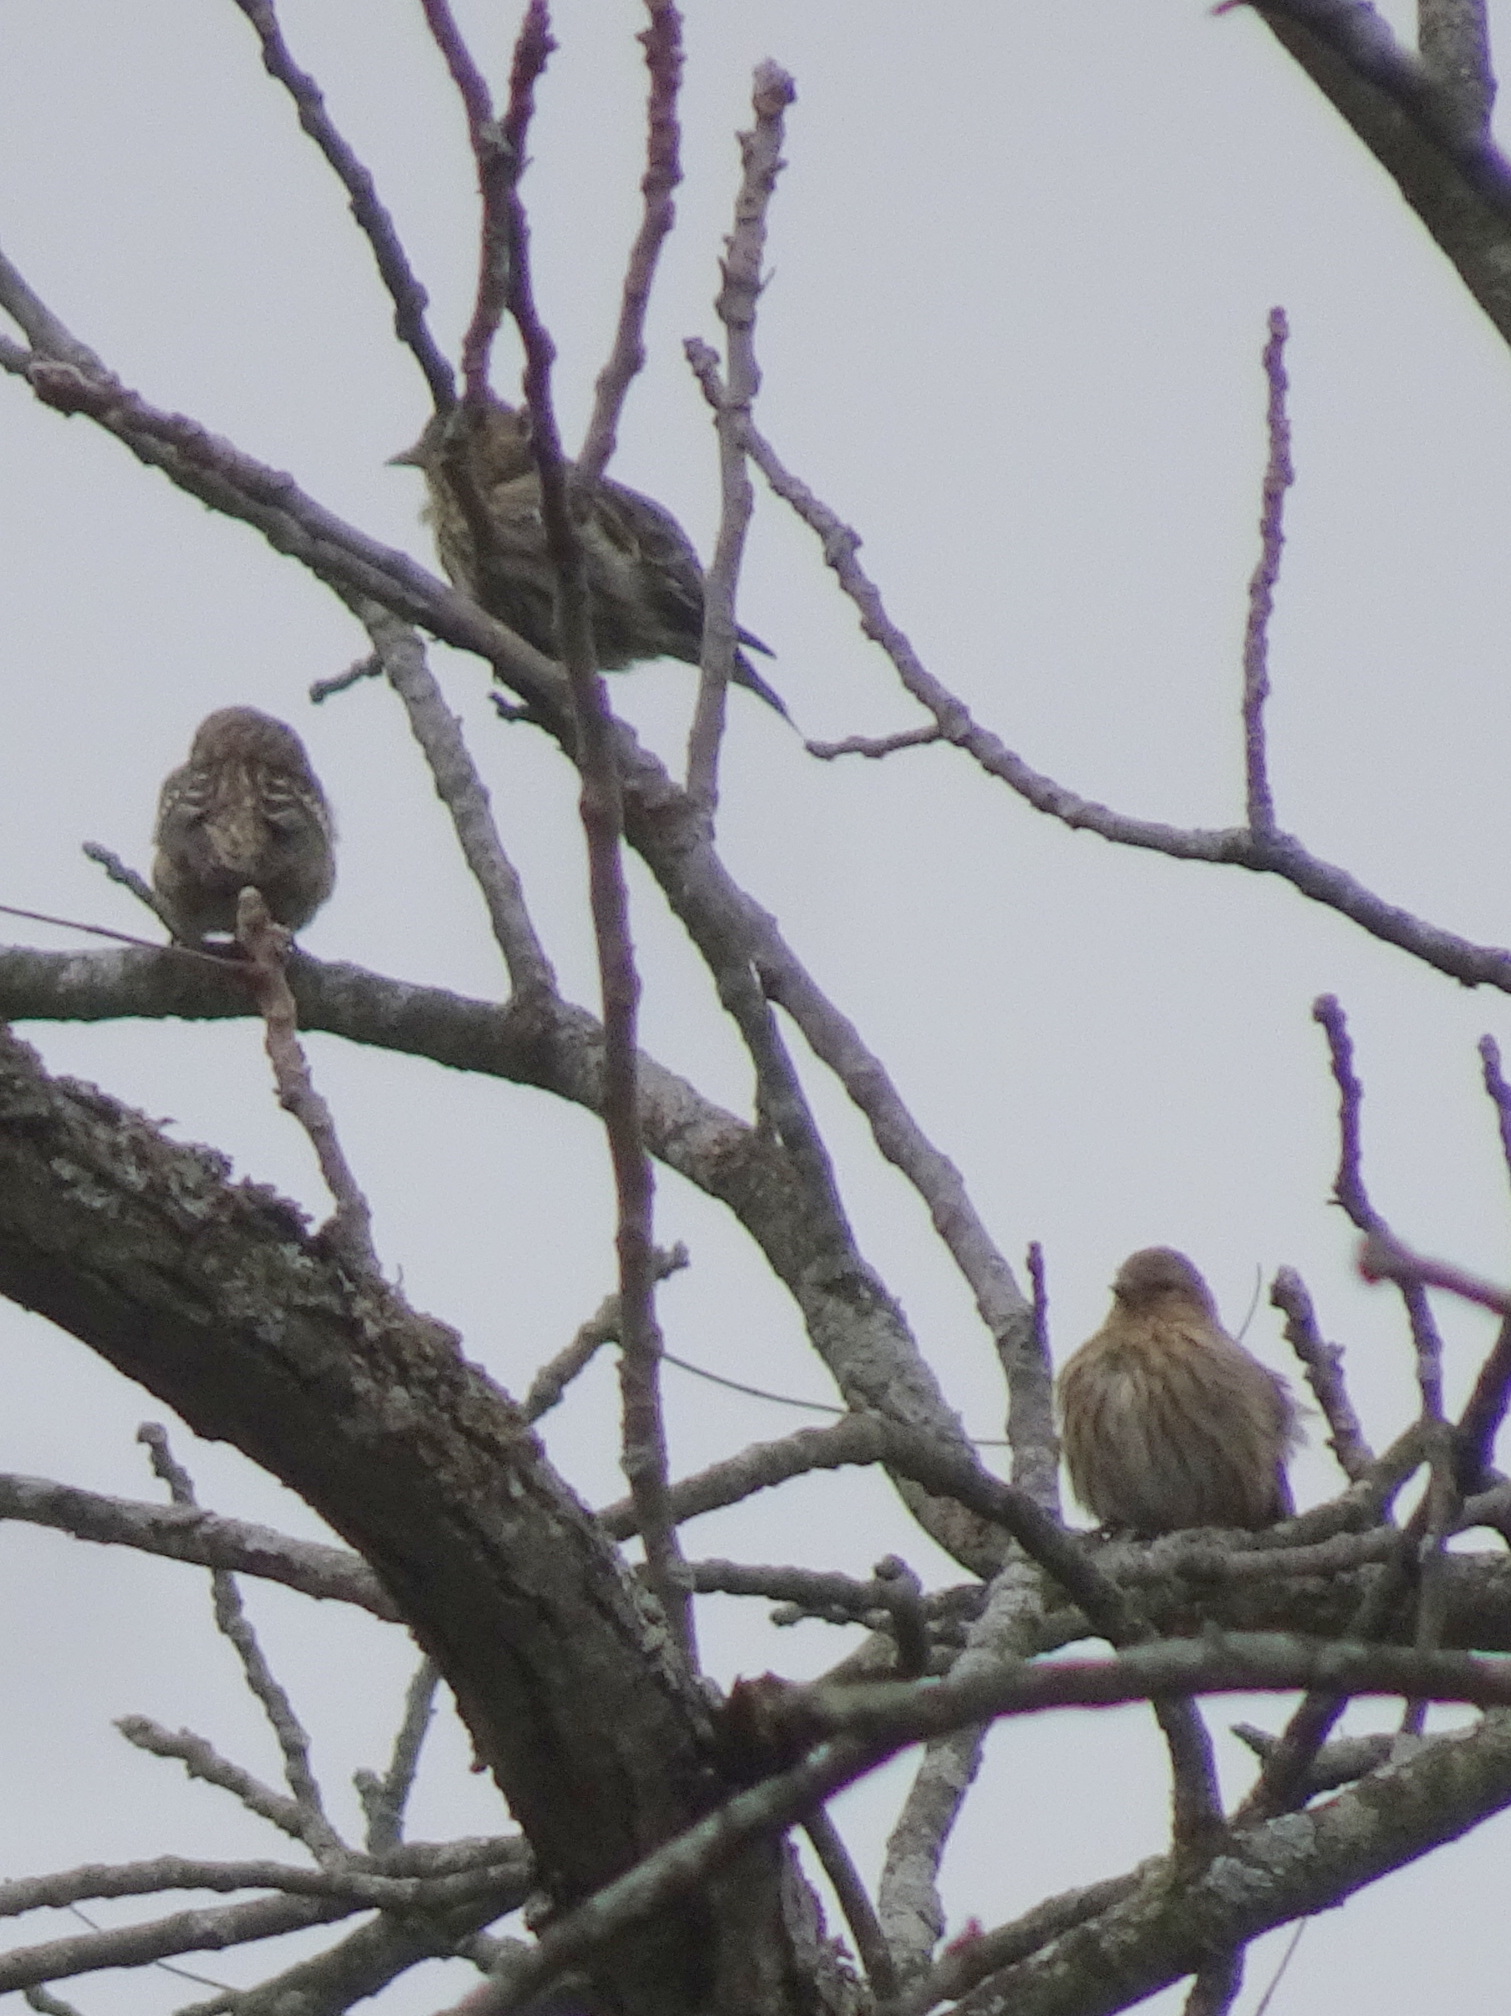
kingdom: Animalia
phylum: Chordata
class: Aves
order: Passeriformes
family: Fringillidae
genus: Spinus
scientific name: Spinus pinus
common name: Pine siskin
